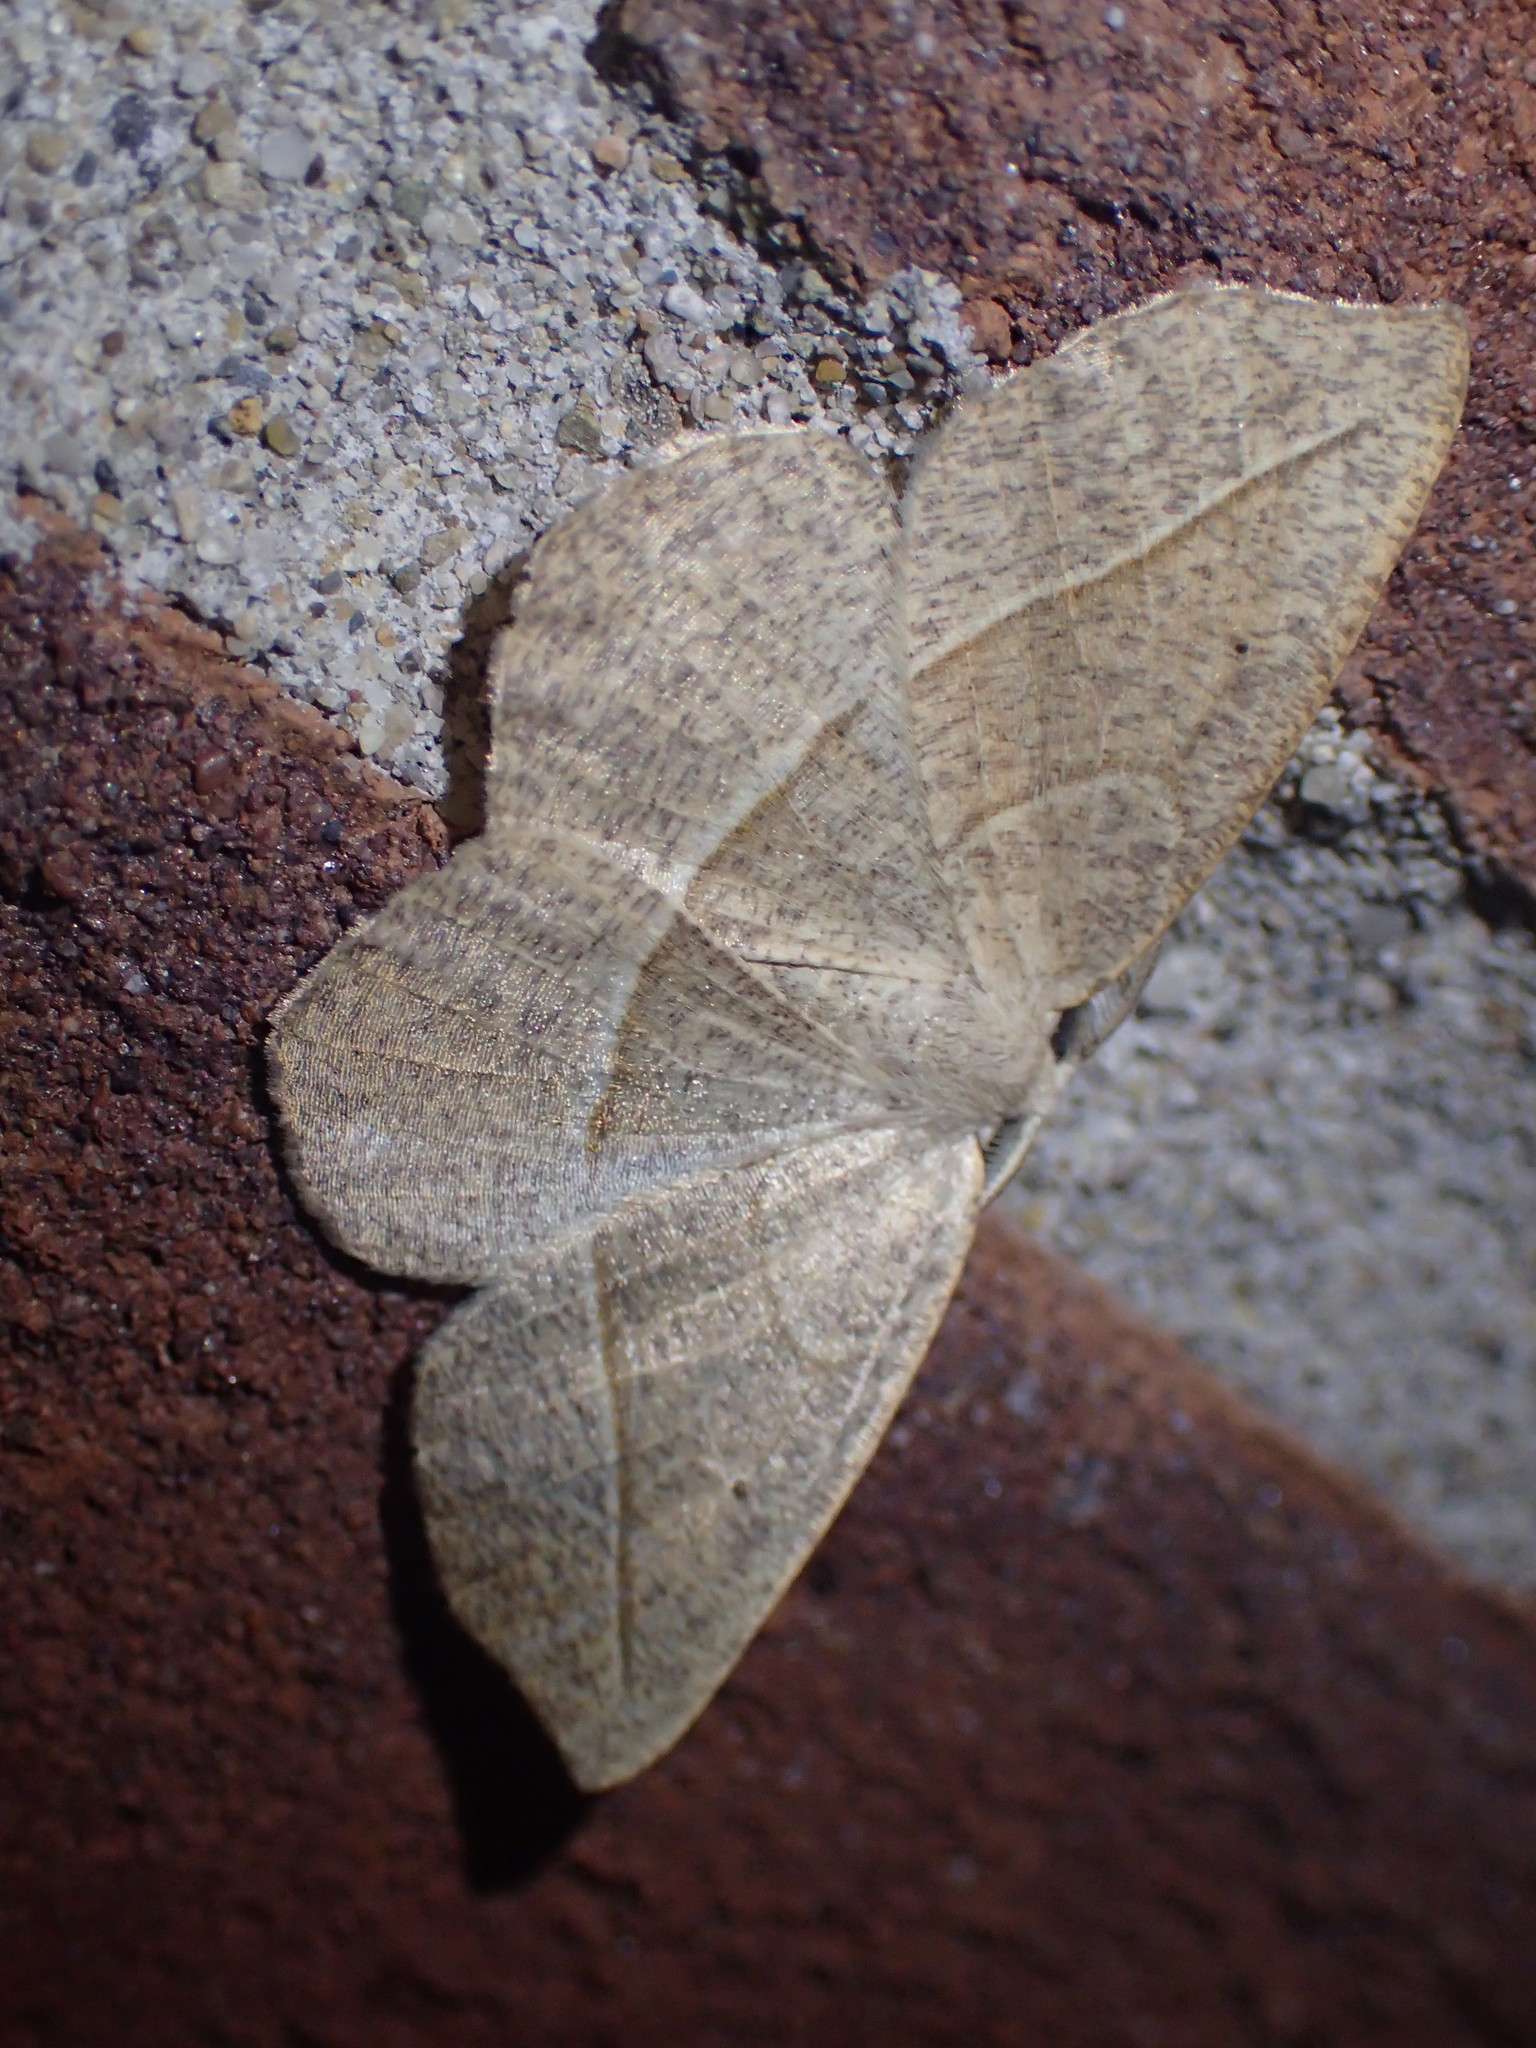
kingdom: Animalia
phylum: Arthropoda
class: Insecta
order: Lepidoptera
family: Geometridae
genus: Eusarca
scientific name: Eusarca confusaria
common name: Confused eusarca
